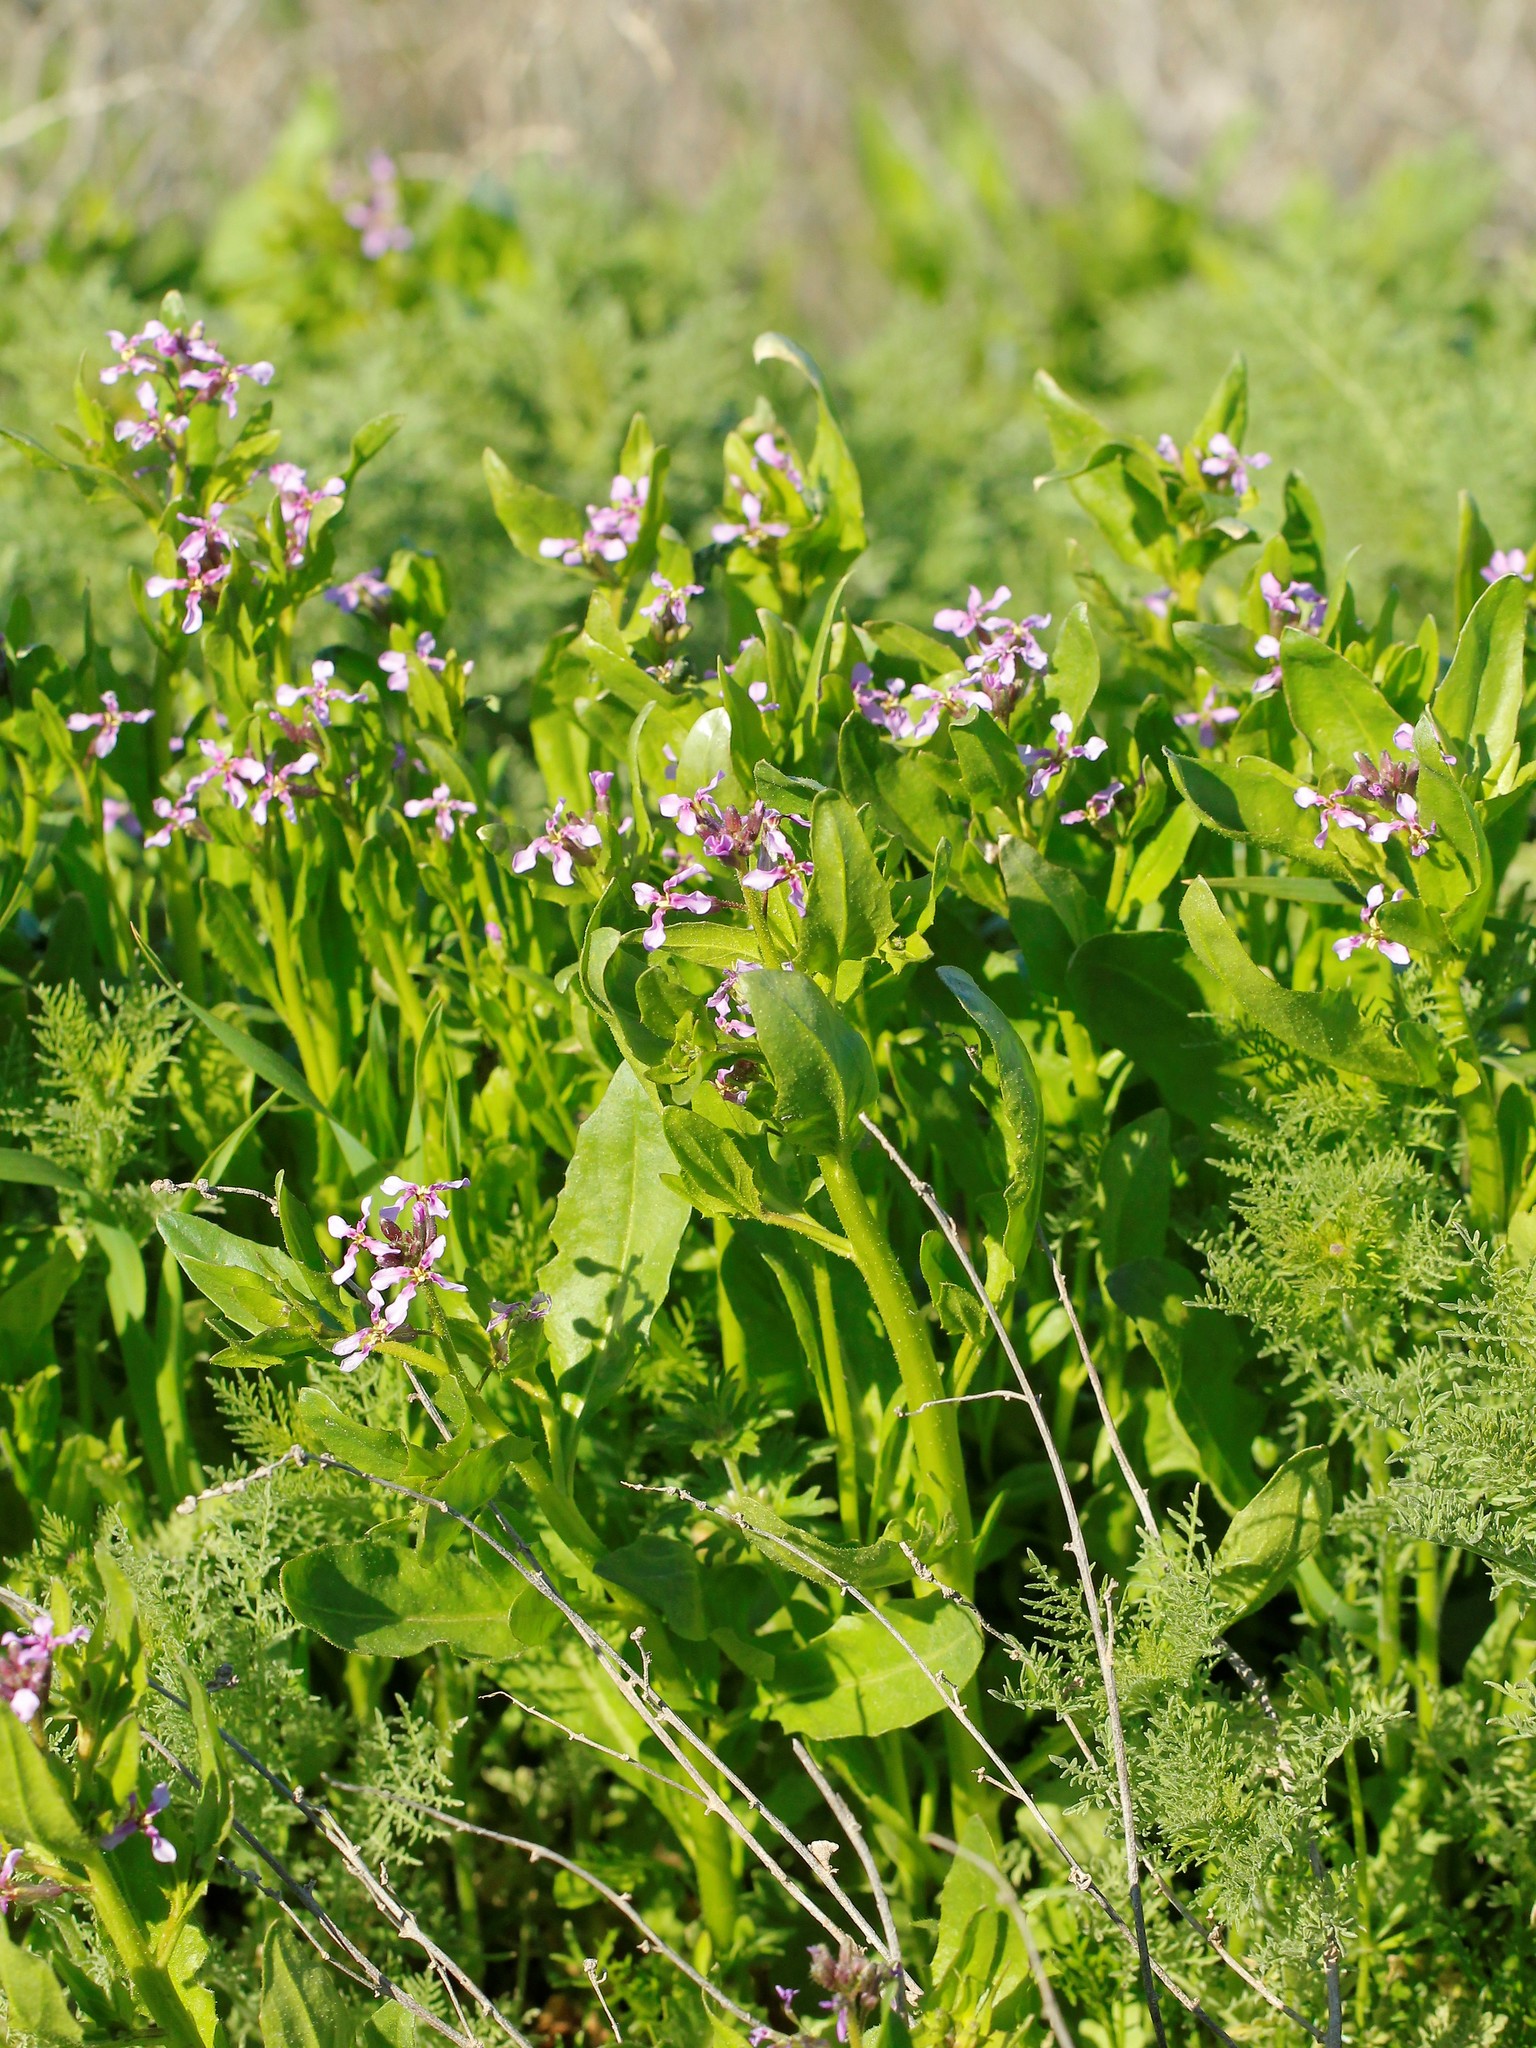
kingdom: Plantae
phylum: Tracheophyta
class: Magnoliopsida
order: Brassicales
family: Brassicaceae
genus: Chorispora
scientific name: Chorispora tenella
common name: Crossflower
